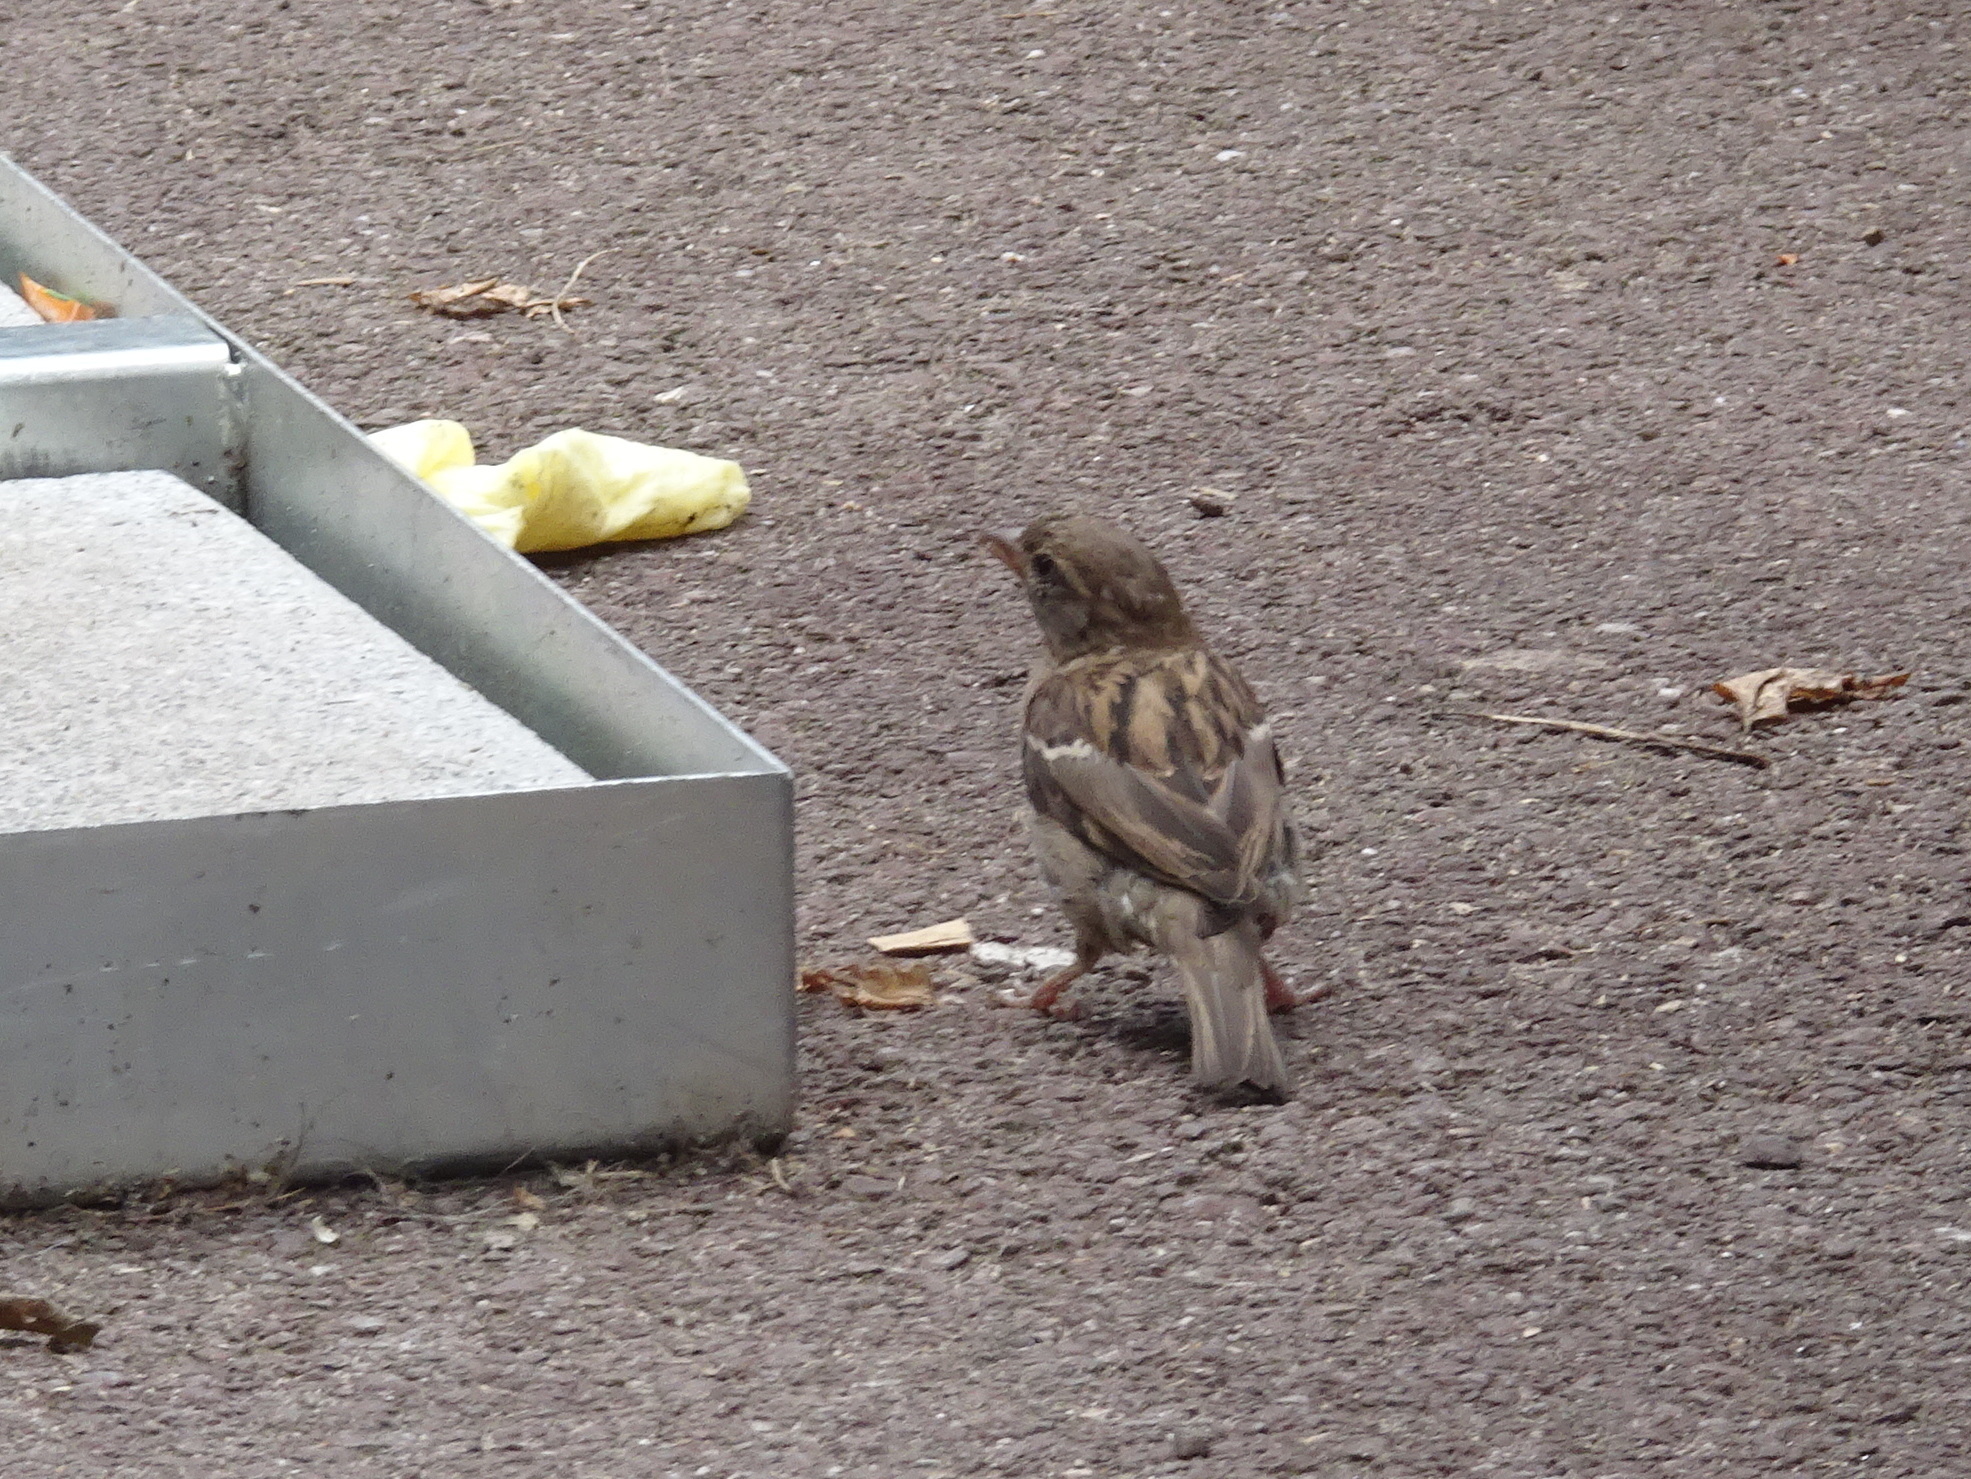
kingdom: Animalia
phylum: Chordata
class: Aves
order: Passeriformes
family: Passeridae
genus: Passer
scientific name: Passer domesticus
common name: House sparrow
